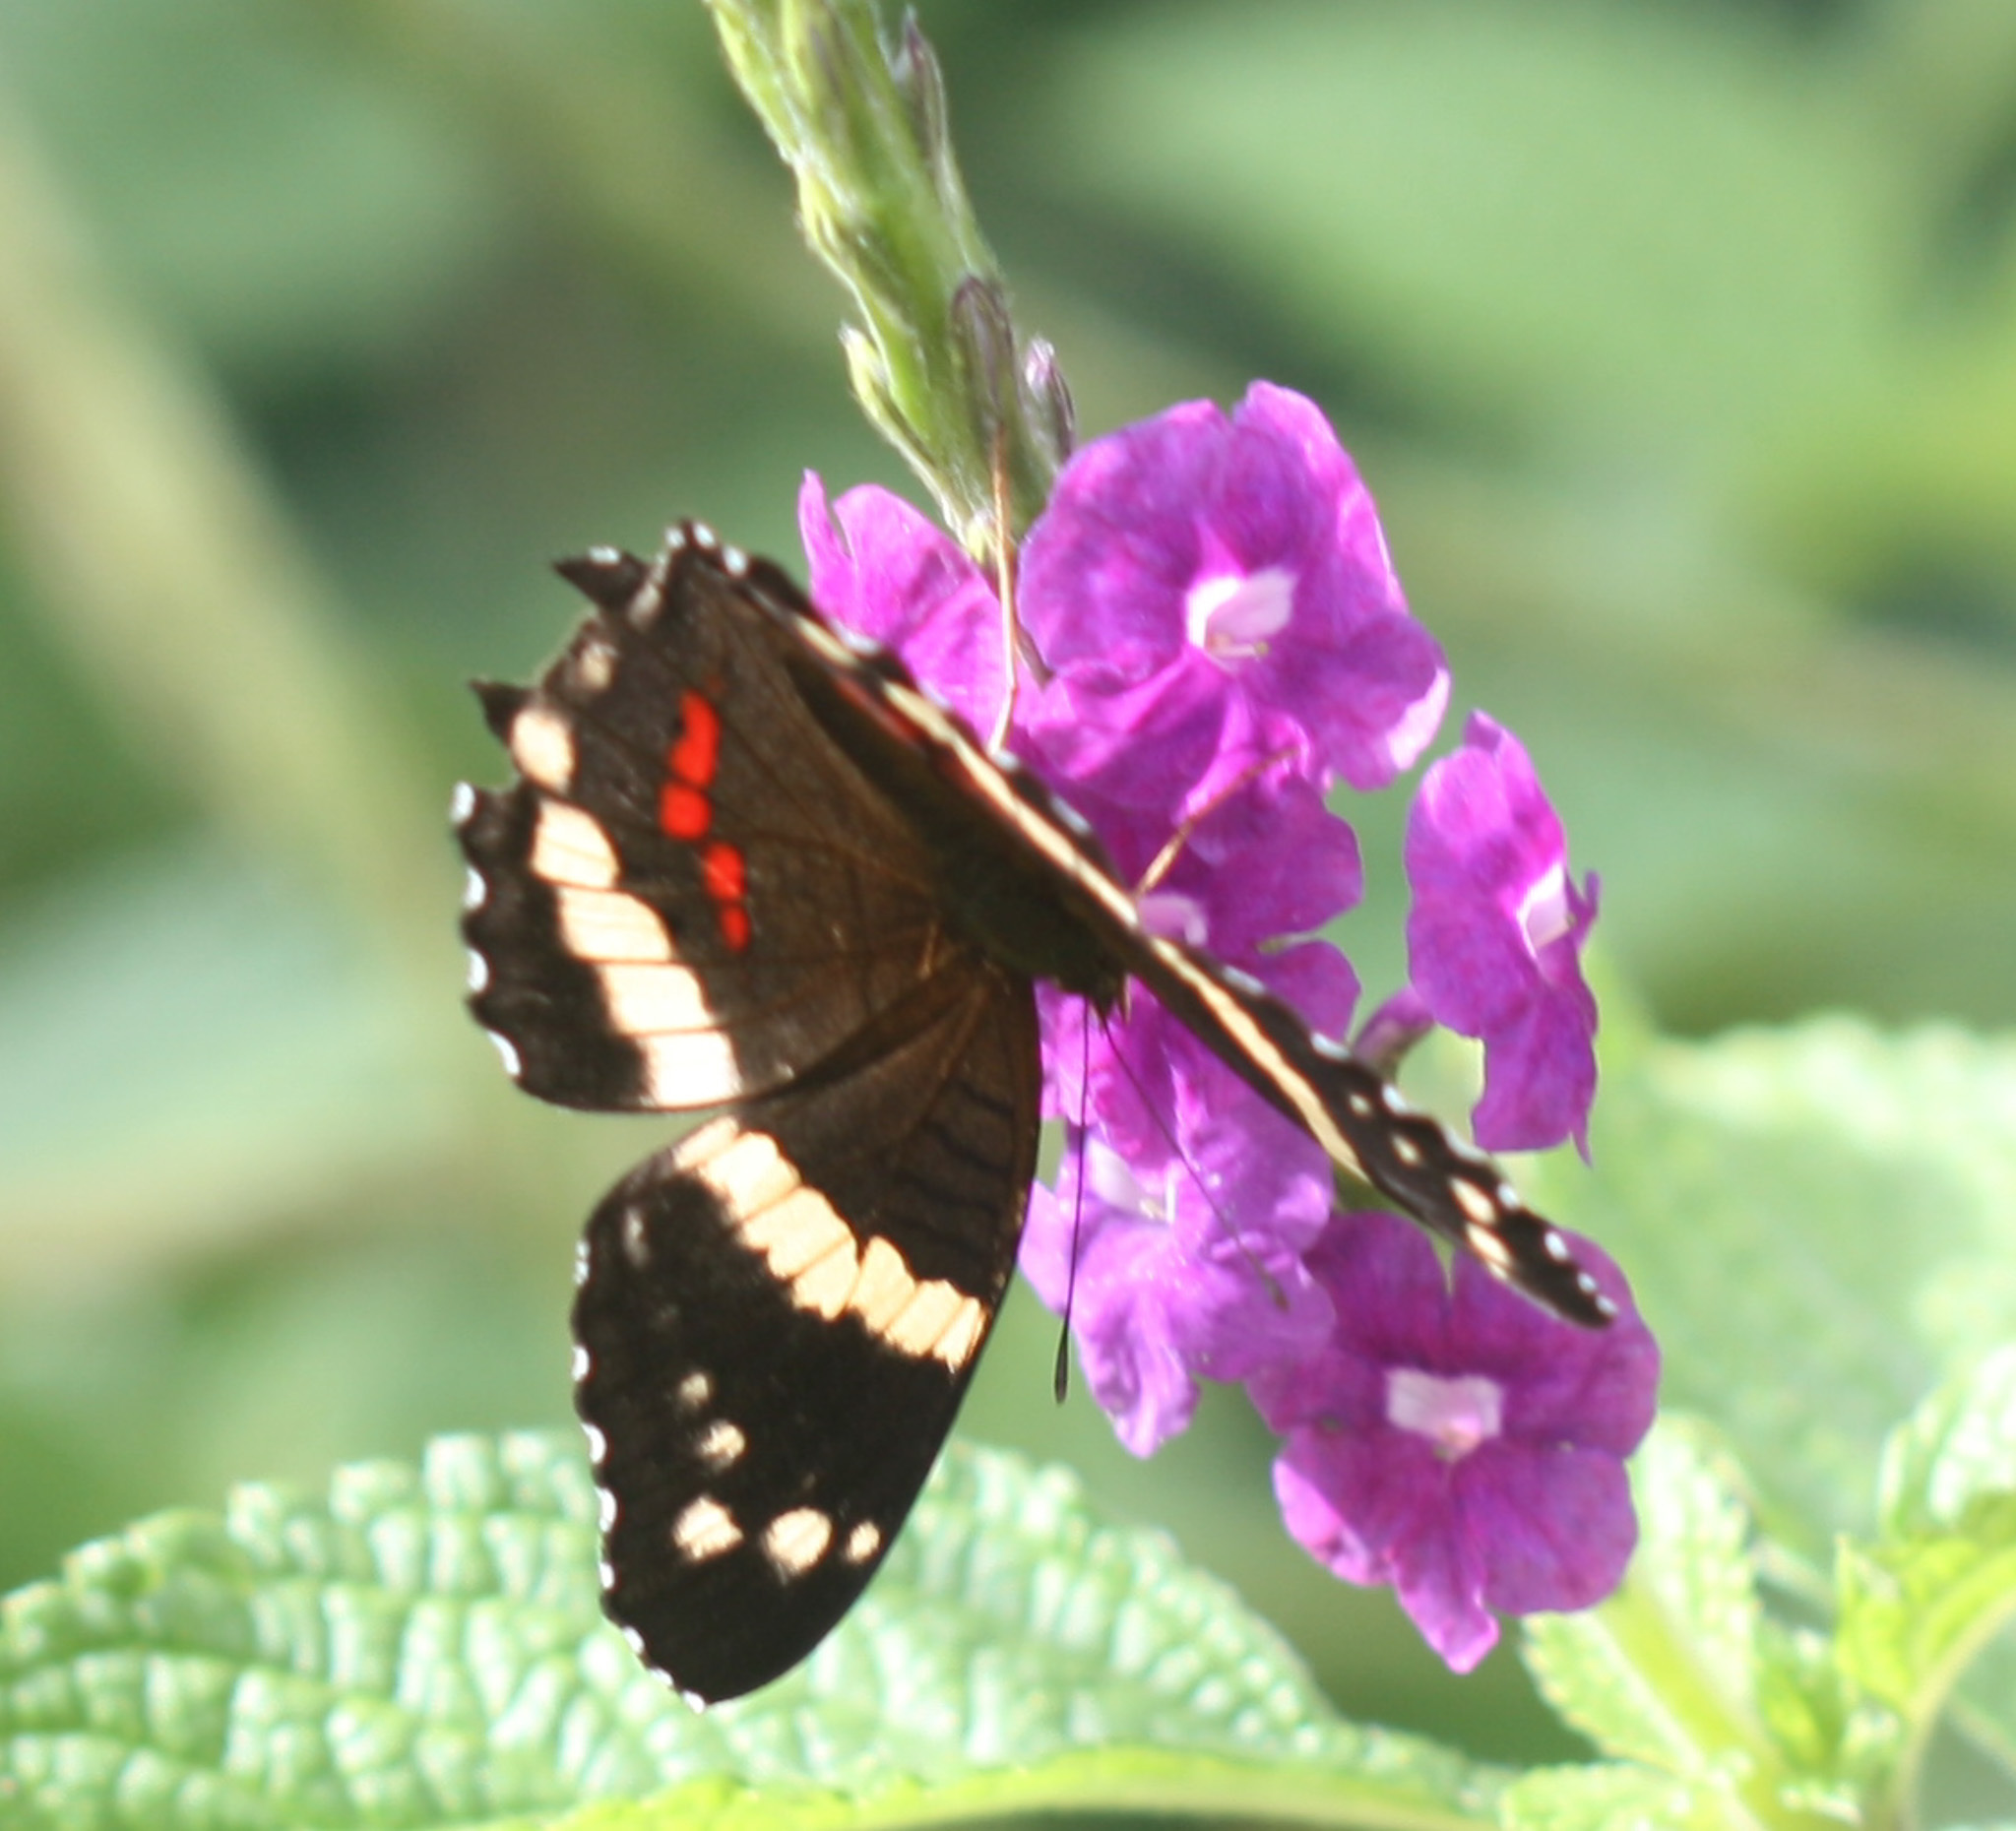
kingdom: Animalia
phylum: Arthropoda
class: Insecta
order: Lepidoptera
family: Nymphalidae
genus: Anartia
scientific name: Anartia fatima
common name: Banded peacock
